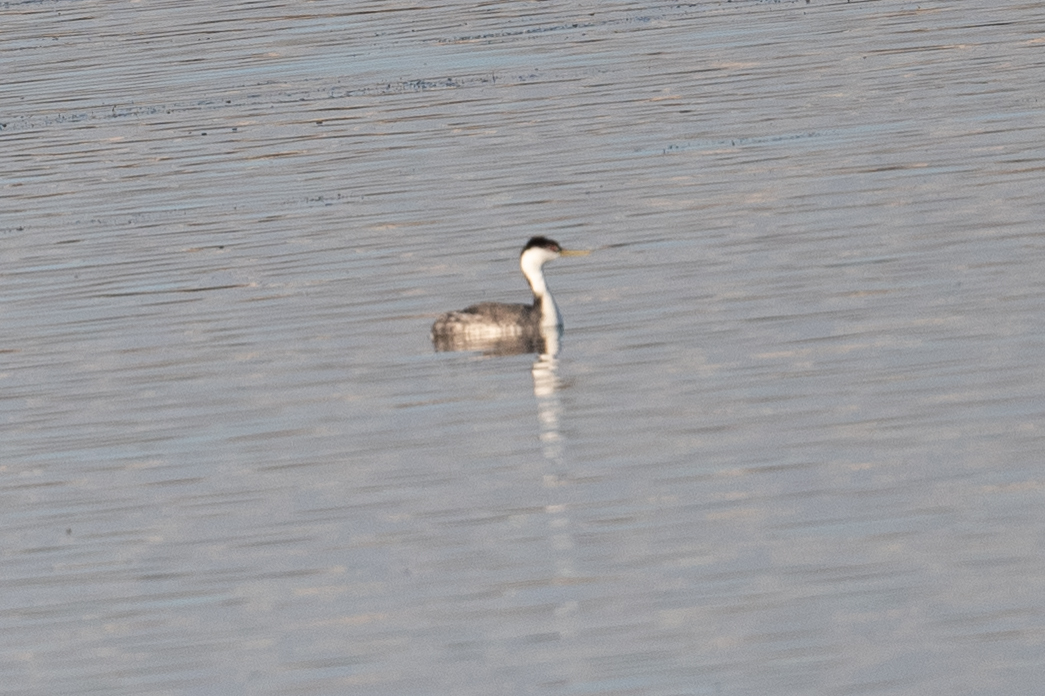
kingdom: Animalia
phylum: Chordata
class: Aves
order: Podicipediformes
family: Podicipedidae
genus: Aechmophorus
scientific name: Aechmophorus occidentalis
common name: Western grebe
